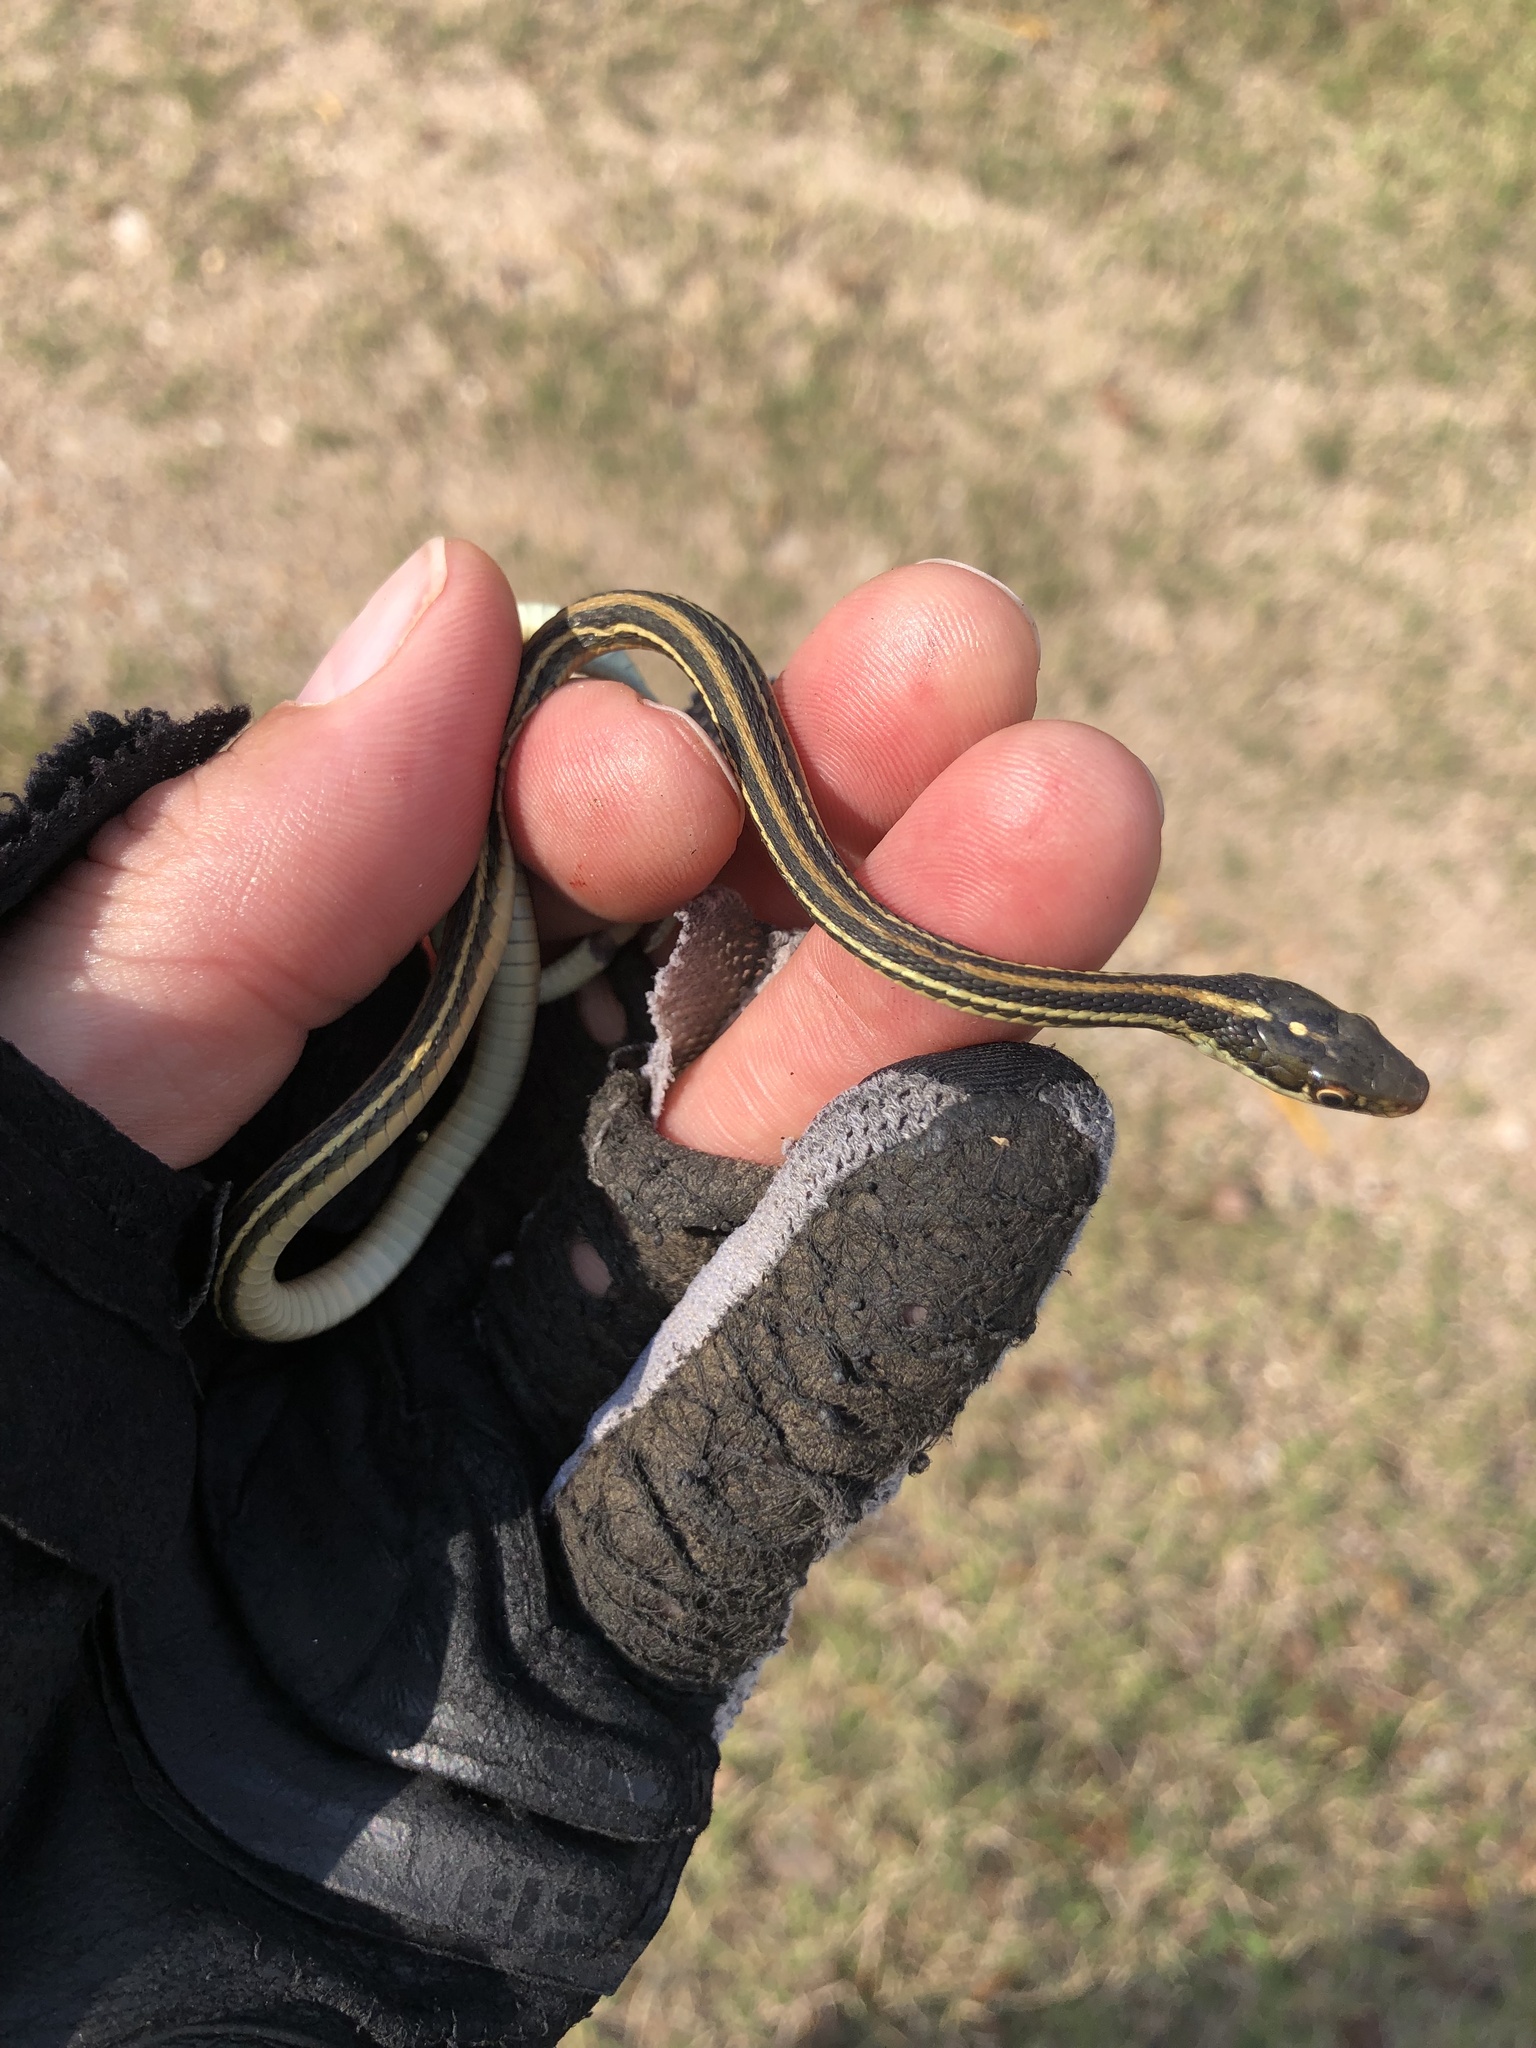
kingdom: Animalia
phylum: Chordata
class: Squamata
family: Colubridae
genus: Thamnophis
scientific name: Thamnophis proximus
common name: Western ribbon snake
